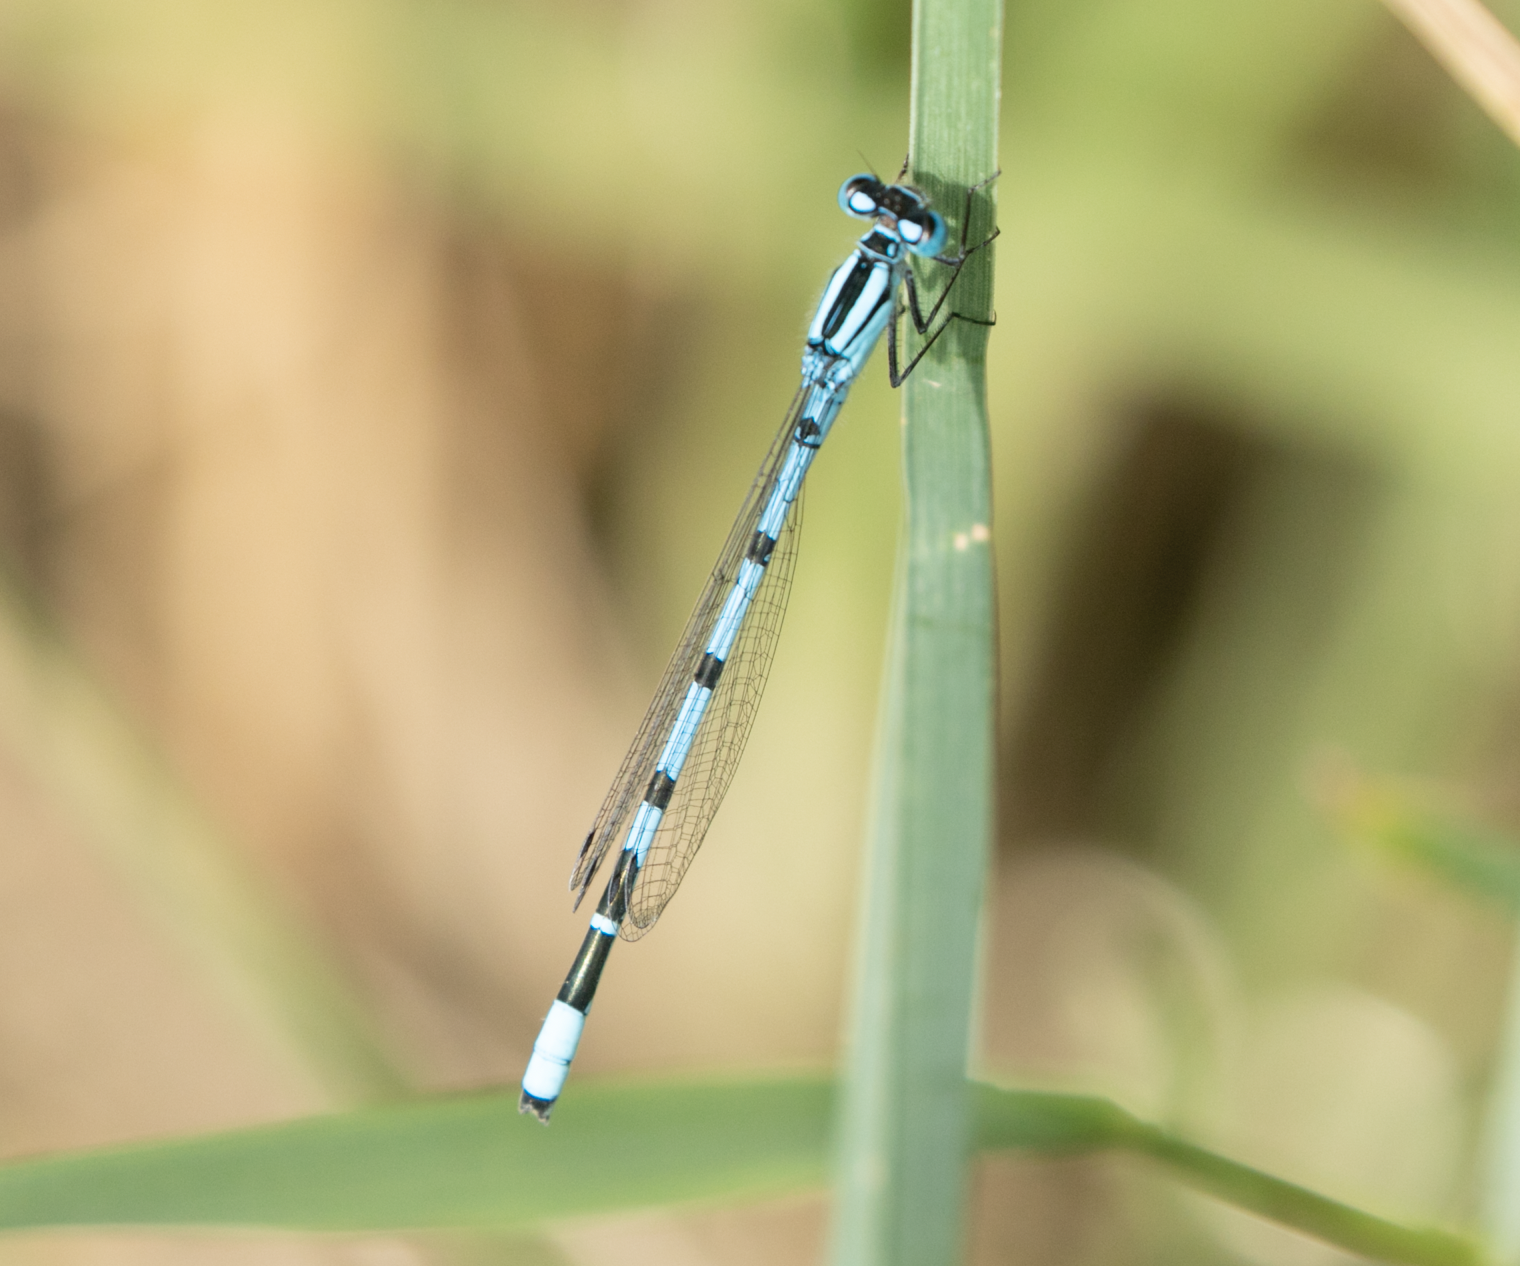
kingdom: Animalia
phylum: Arthropoda
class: Insecta
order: Odonata
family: Coenagrionidae
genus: Enallagma
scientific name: Enallagma cyathigerum
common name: Common blue damselfly
